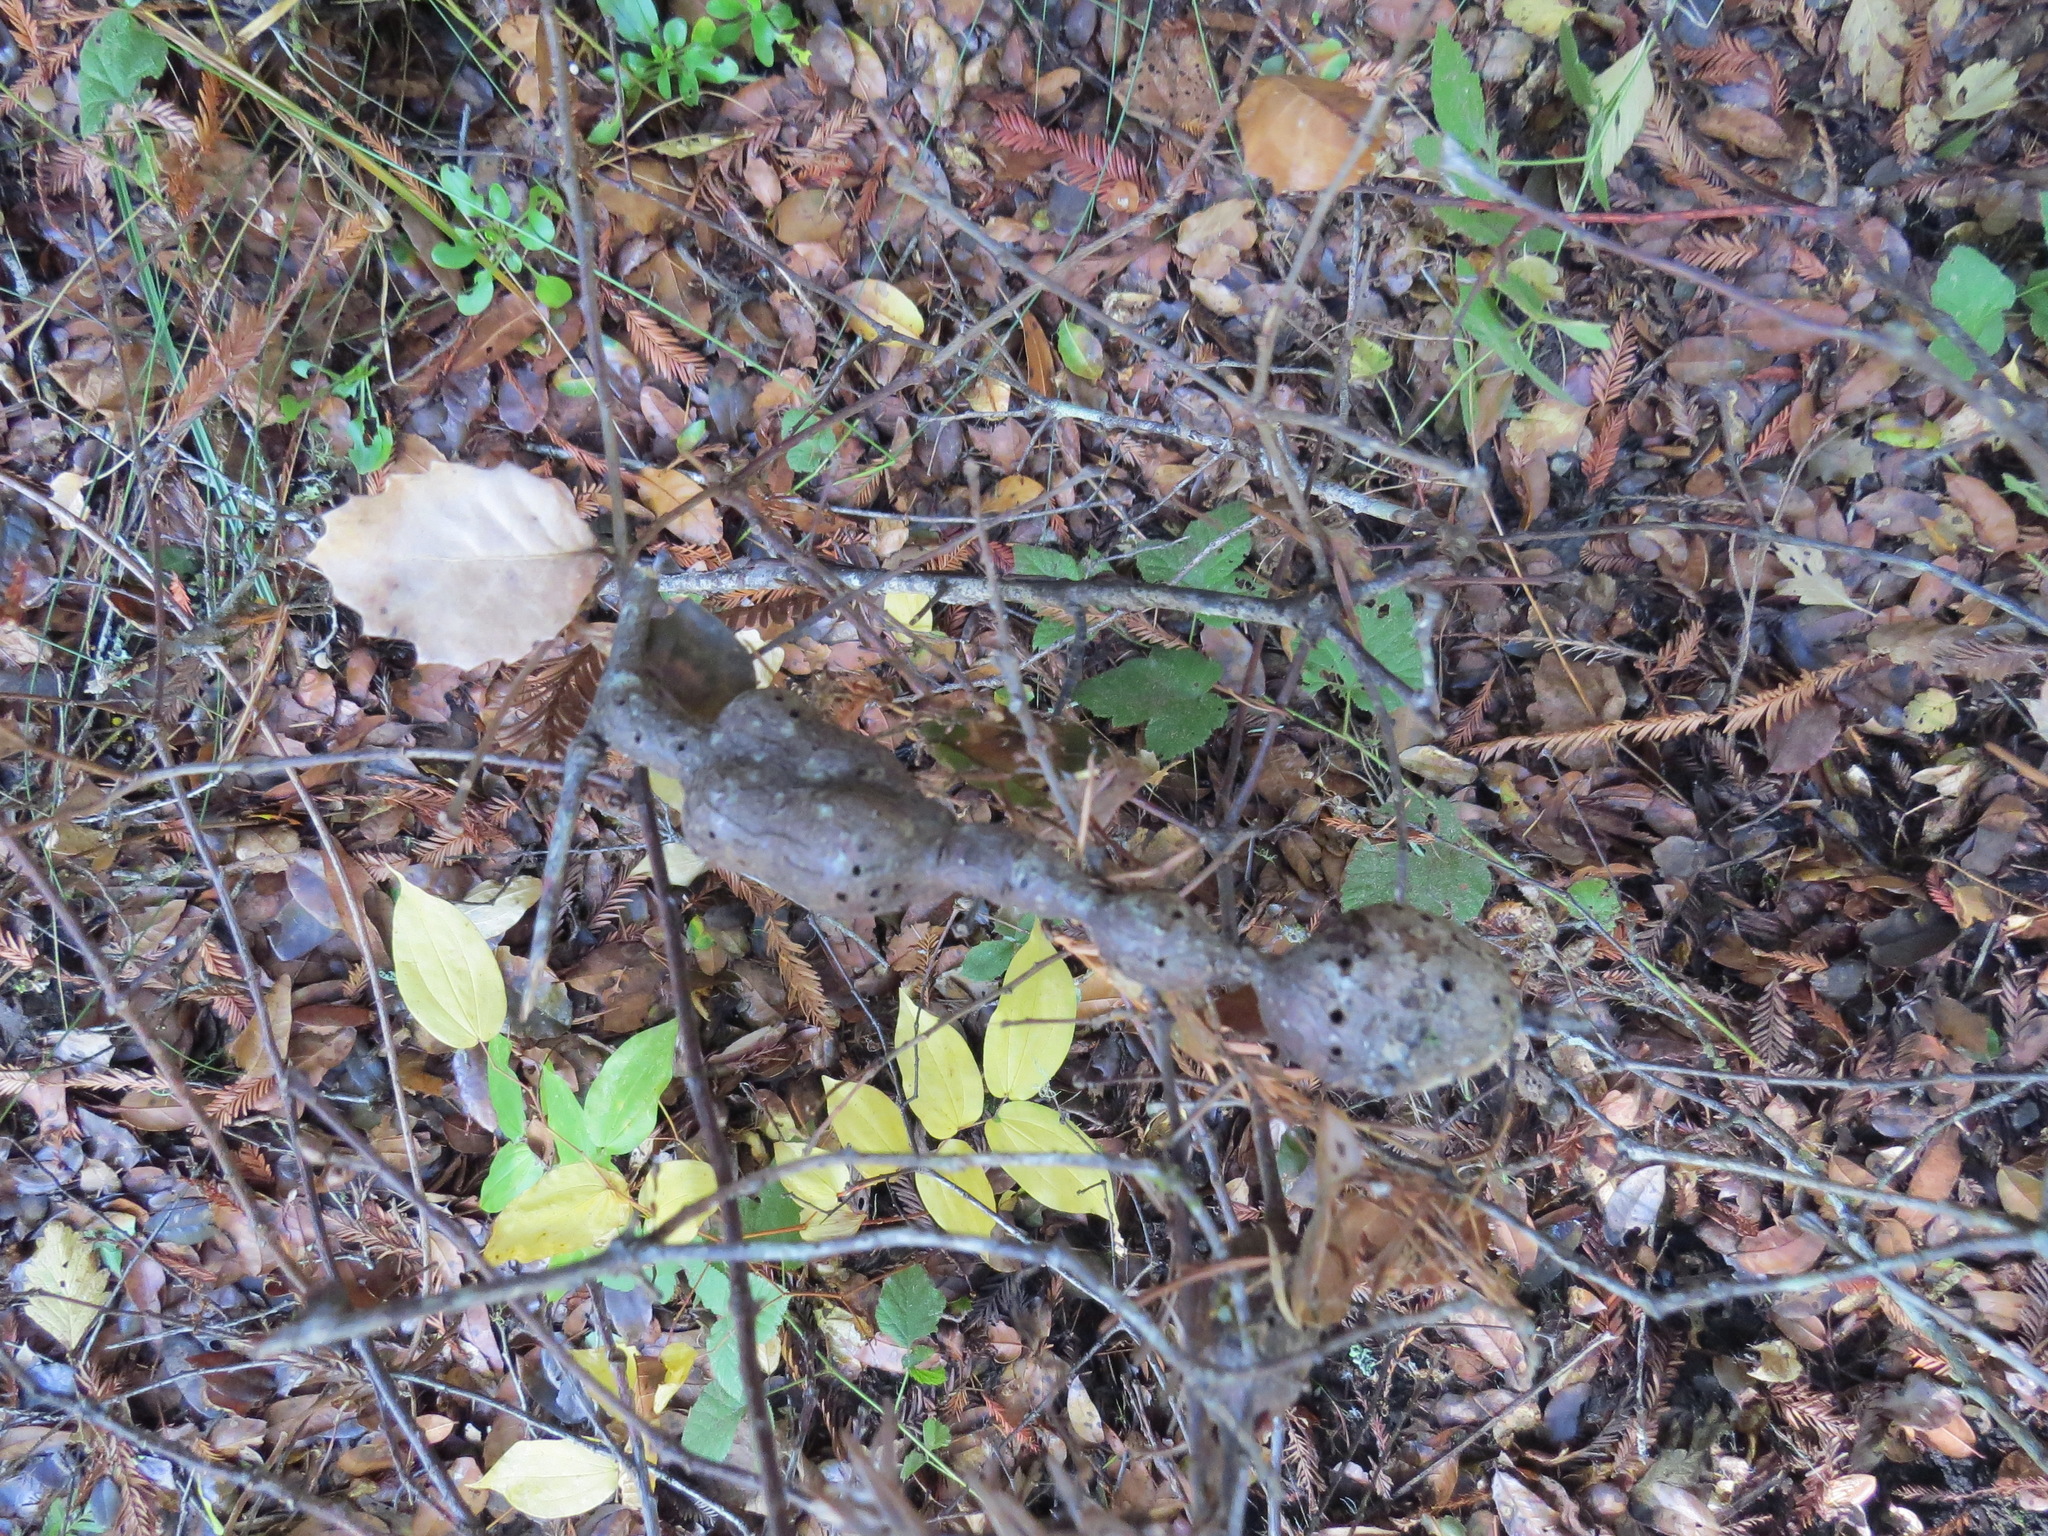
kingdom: Animalia
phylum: Arthropoda
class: Insecta
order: Hymenoptera
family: Cynipidae
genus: Callirhytis
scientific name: Callirhytis
